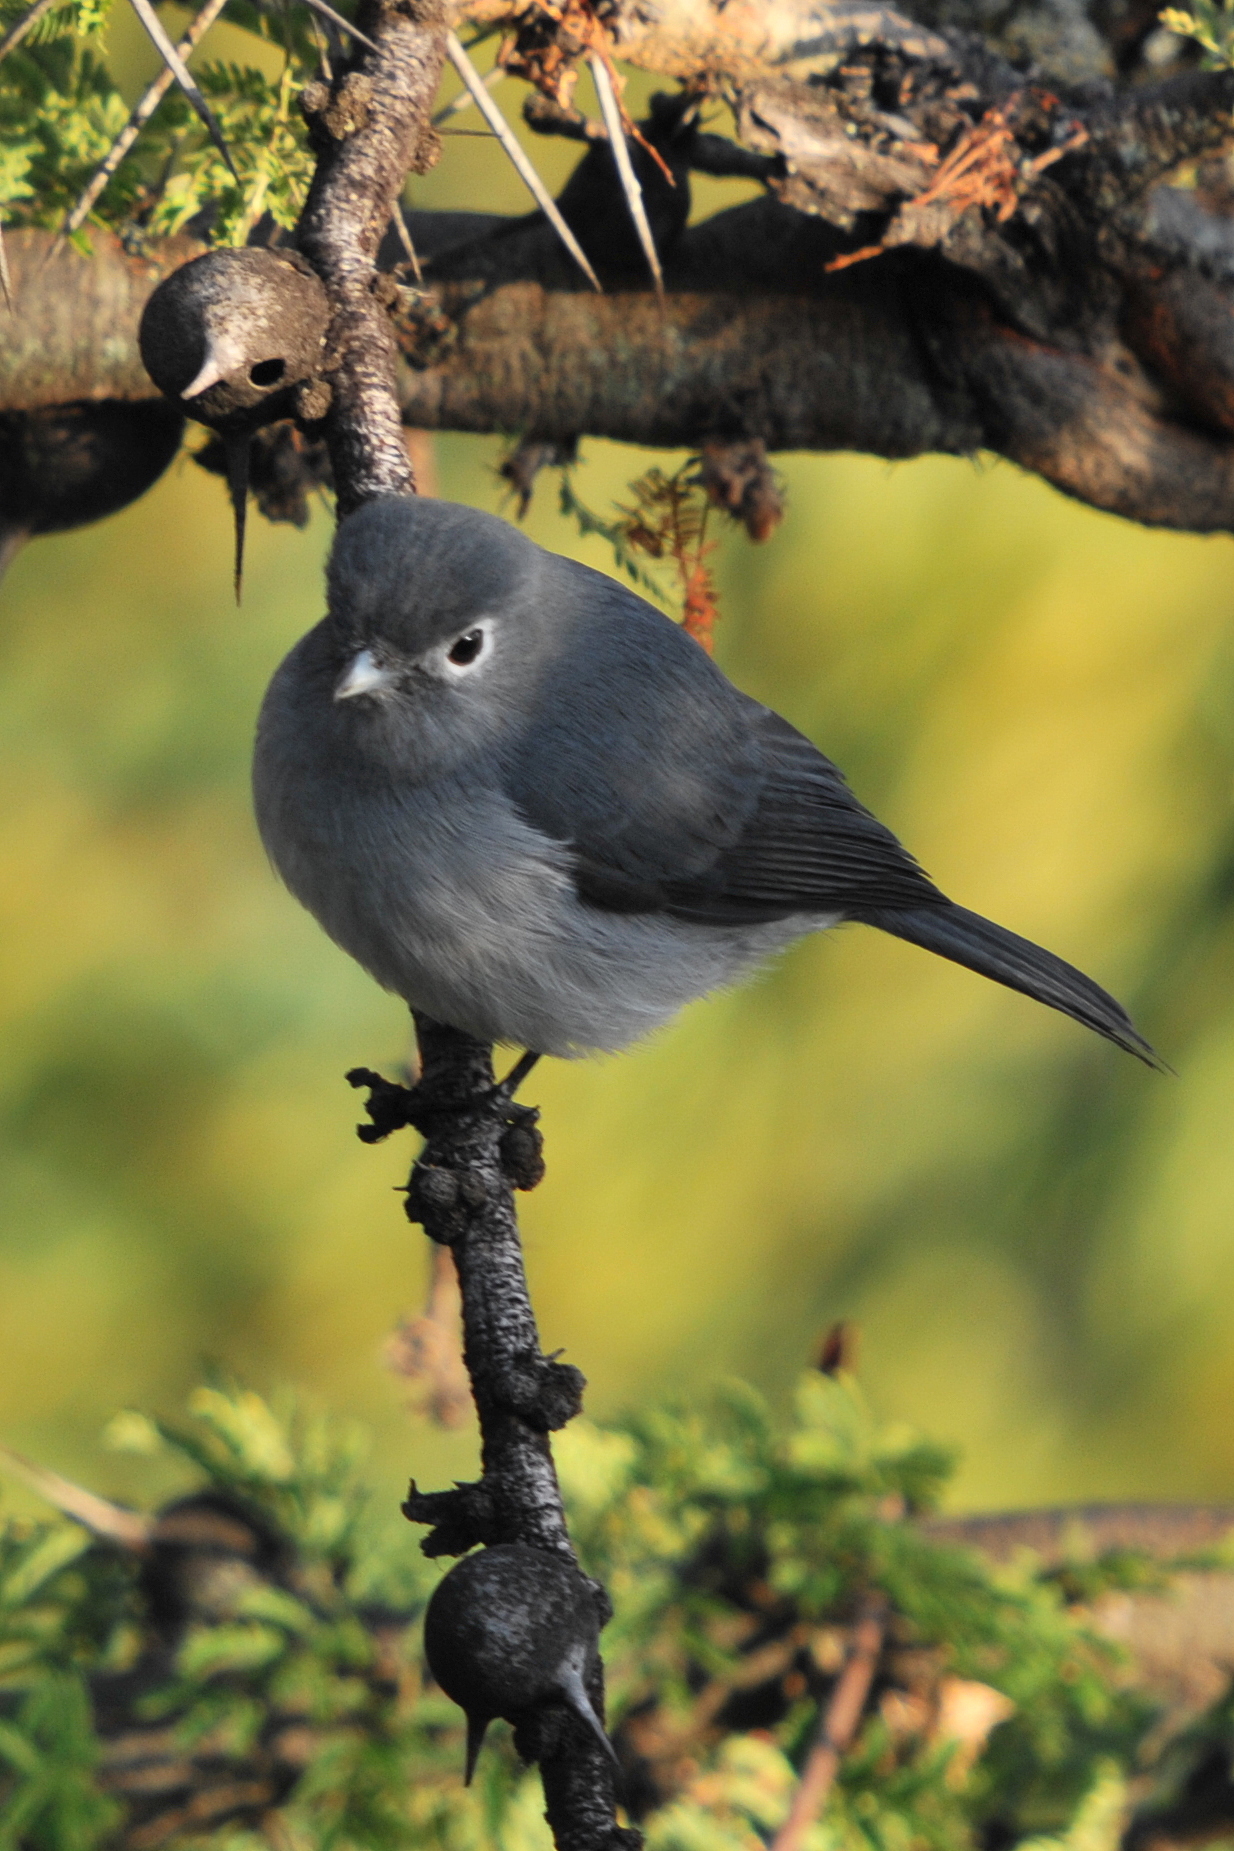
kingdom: Animalia
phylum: Chordata
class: Aves
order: Passeriformes
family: Muscicapidae
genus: Dioptrornis
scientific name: Dioptrornis fischeri
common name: White-eyed slaty flycatcher
